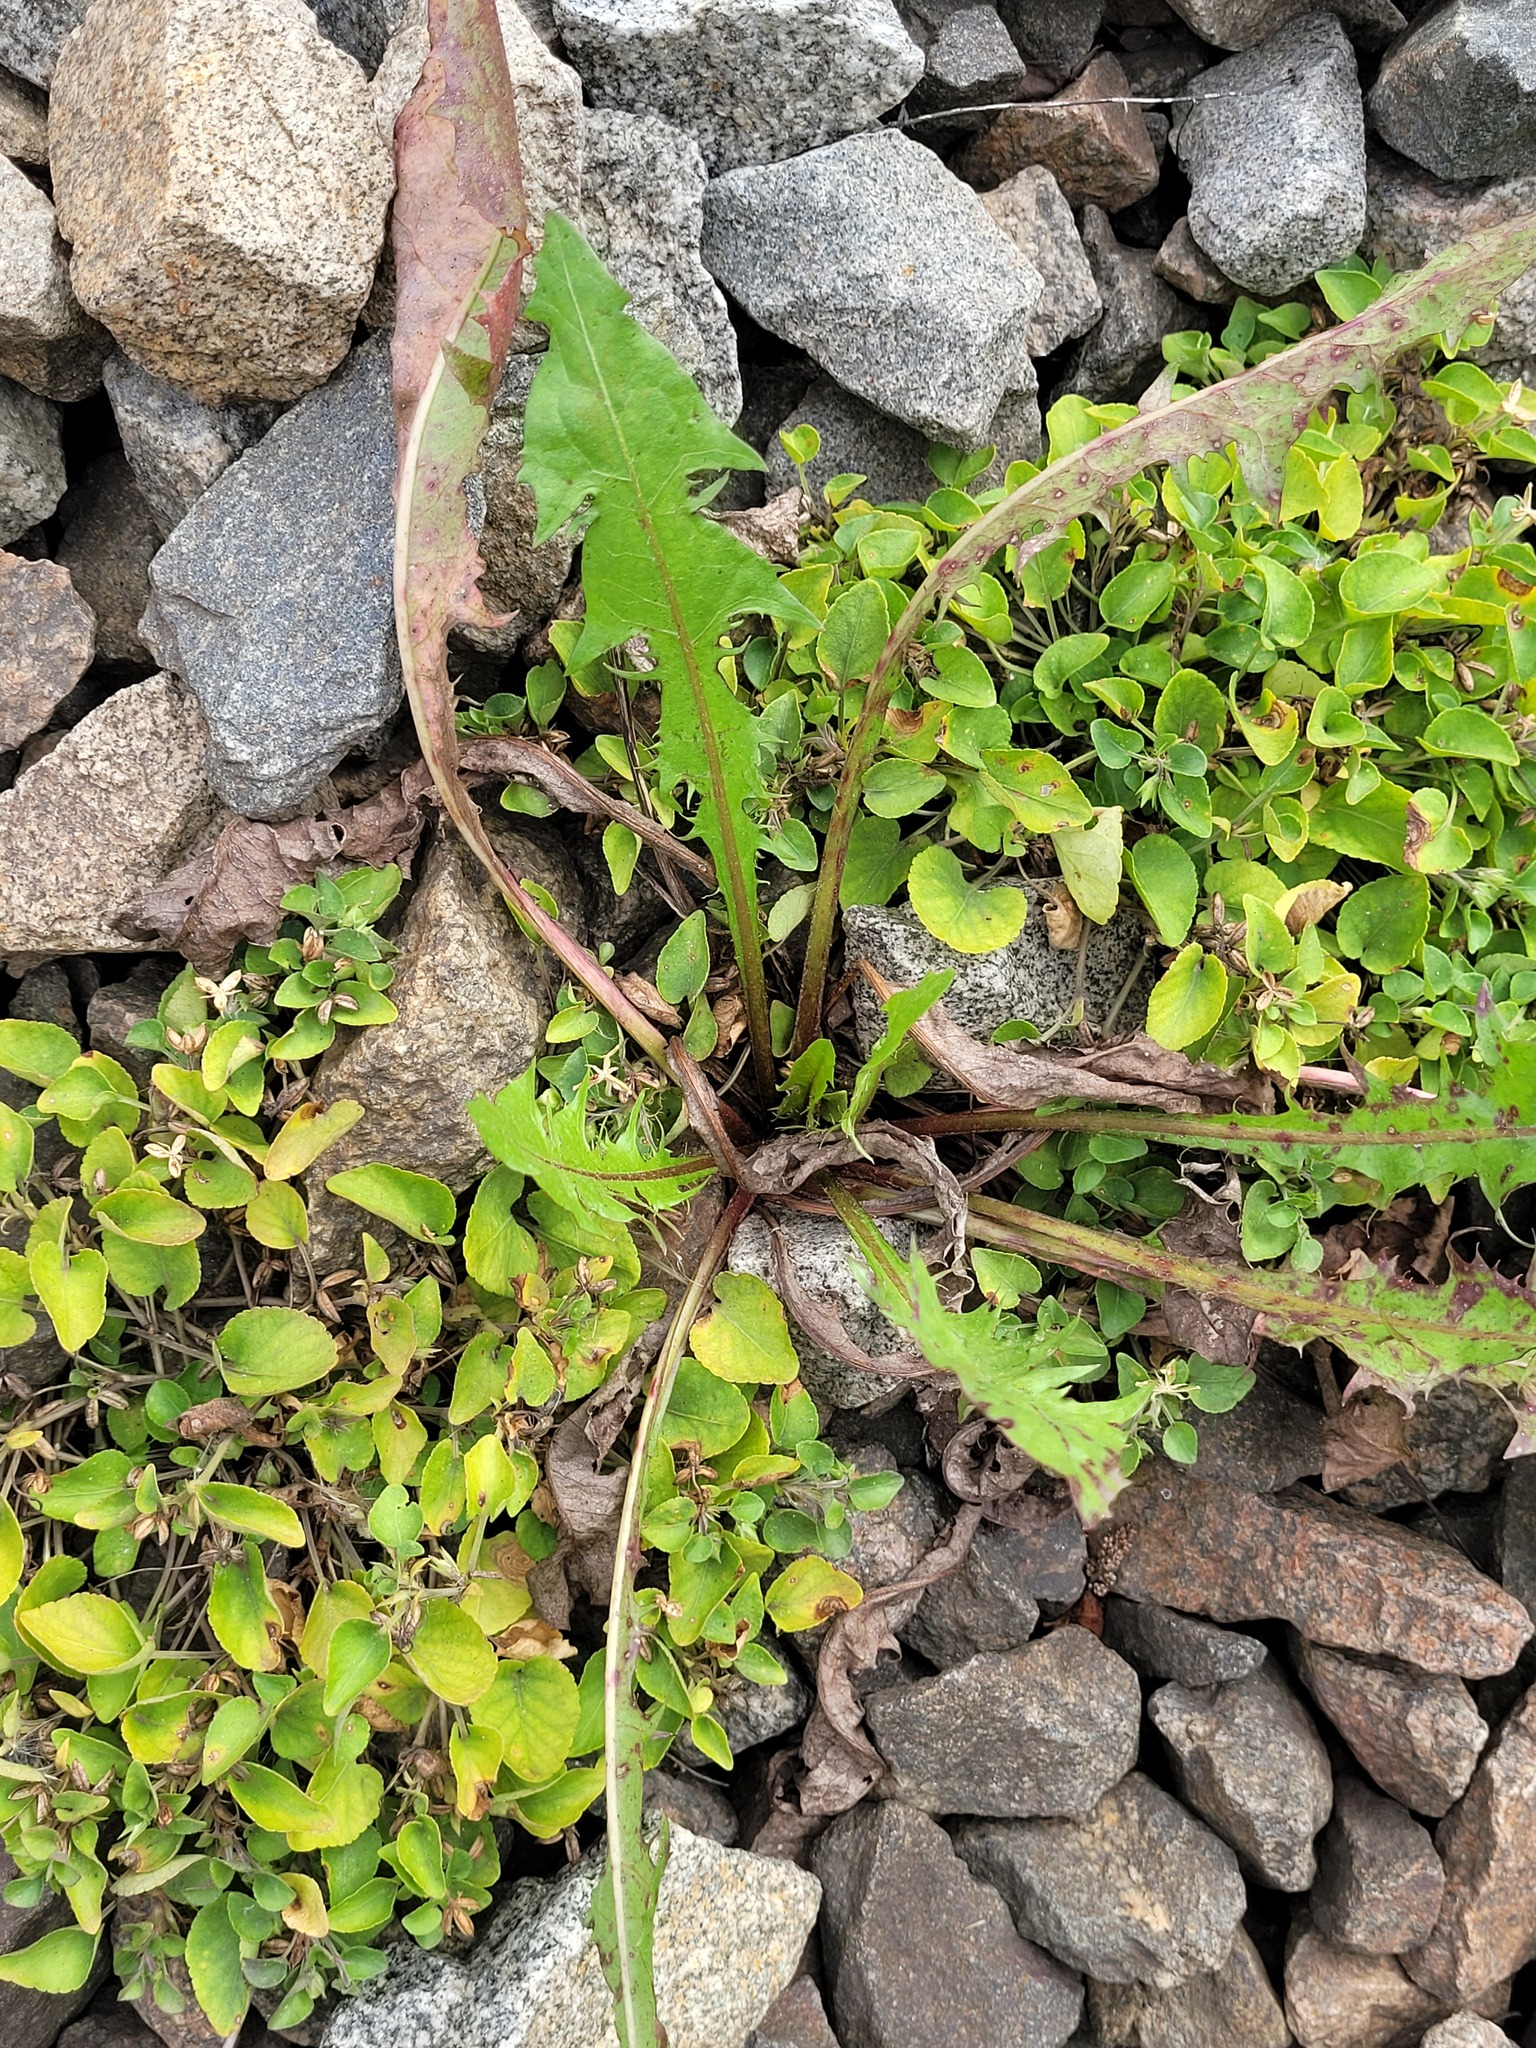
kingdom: Plantae
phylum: Tracheophyta
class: Magnoliopsida
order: Asterales
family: Asteraceae
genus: Taraxacum
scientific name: Taraxacum officinale
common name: Common dandelion
